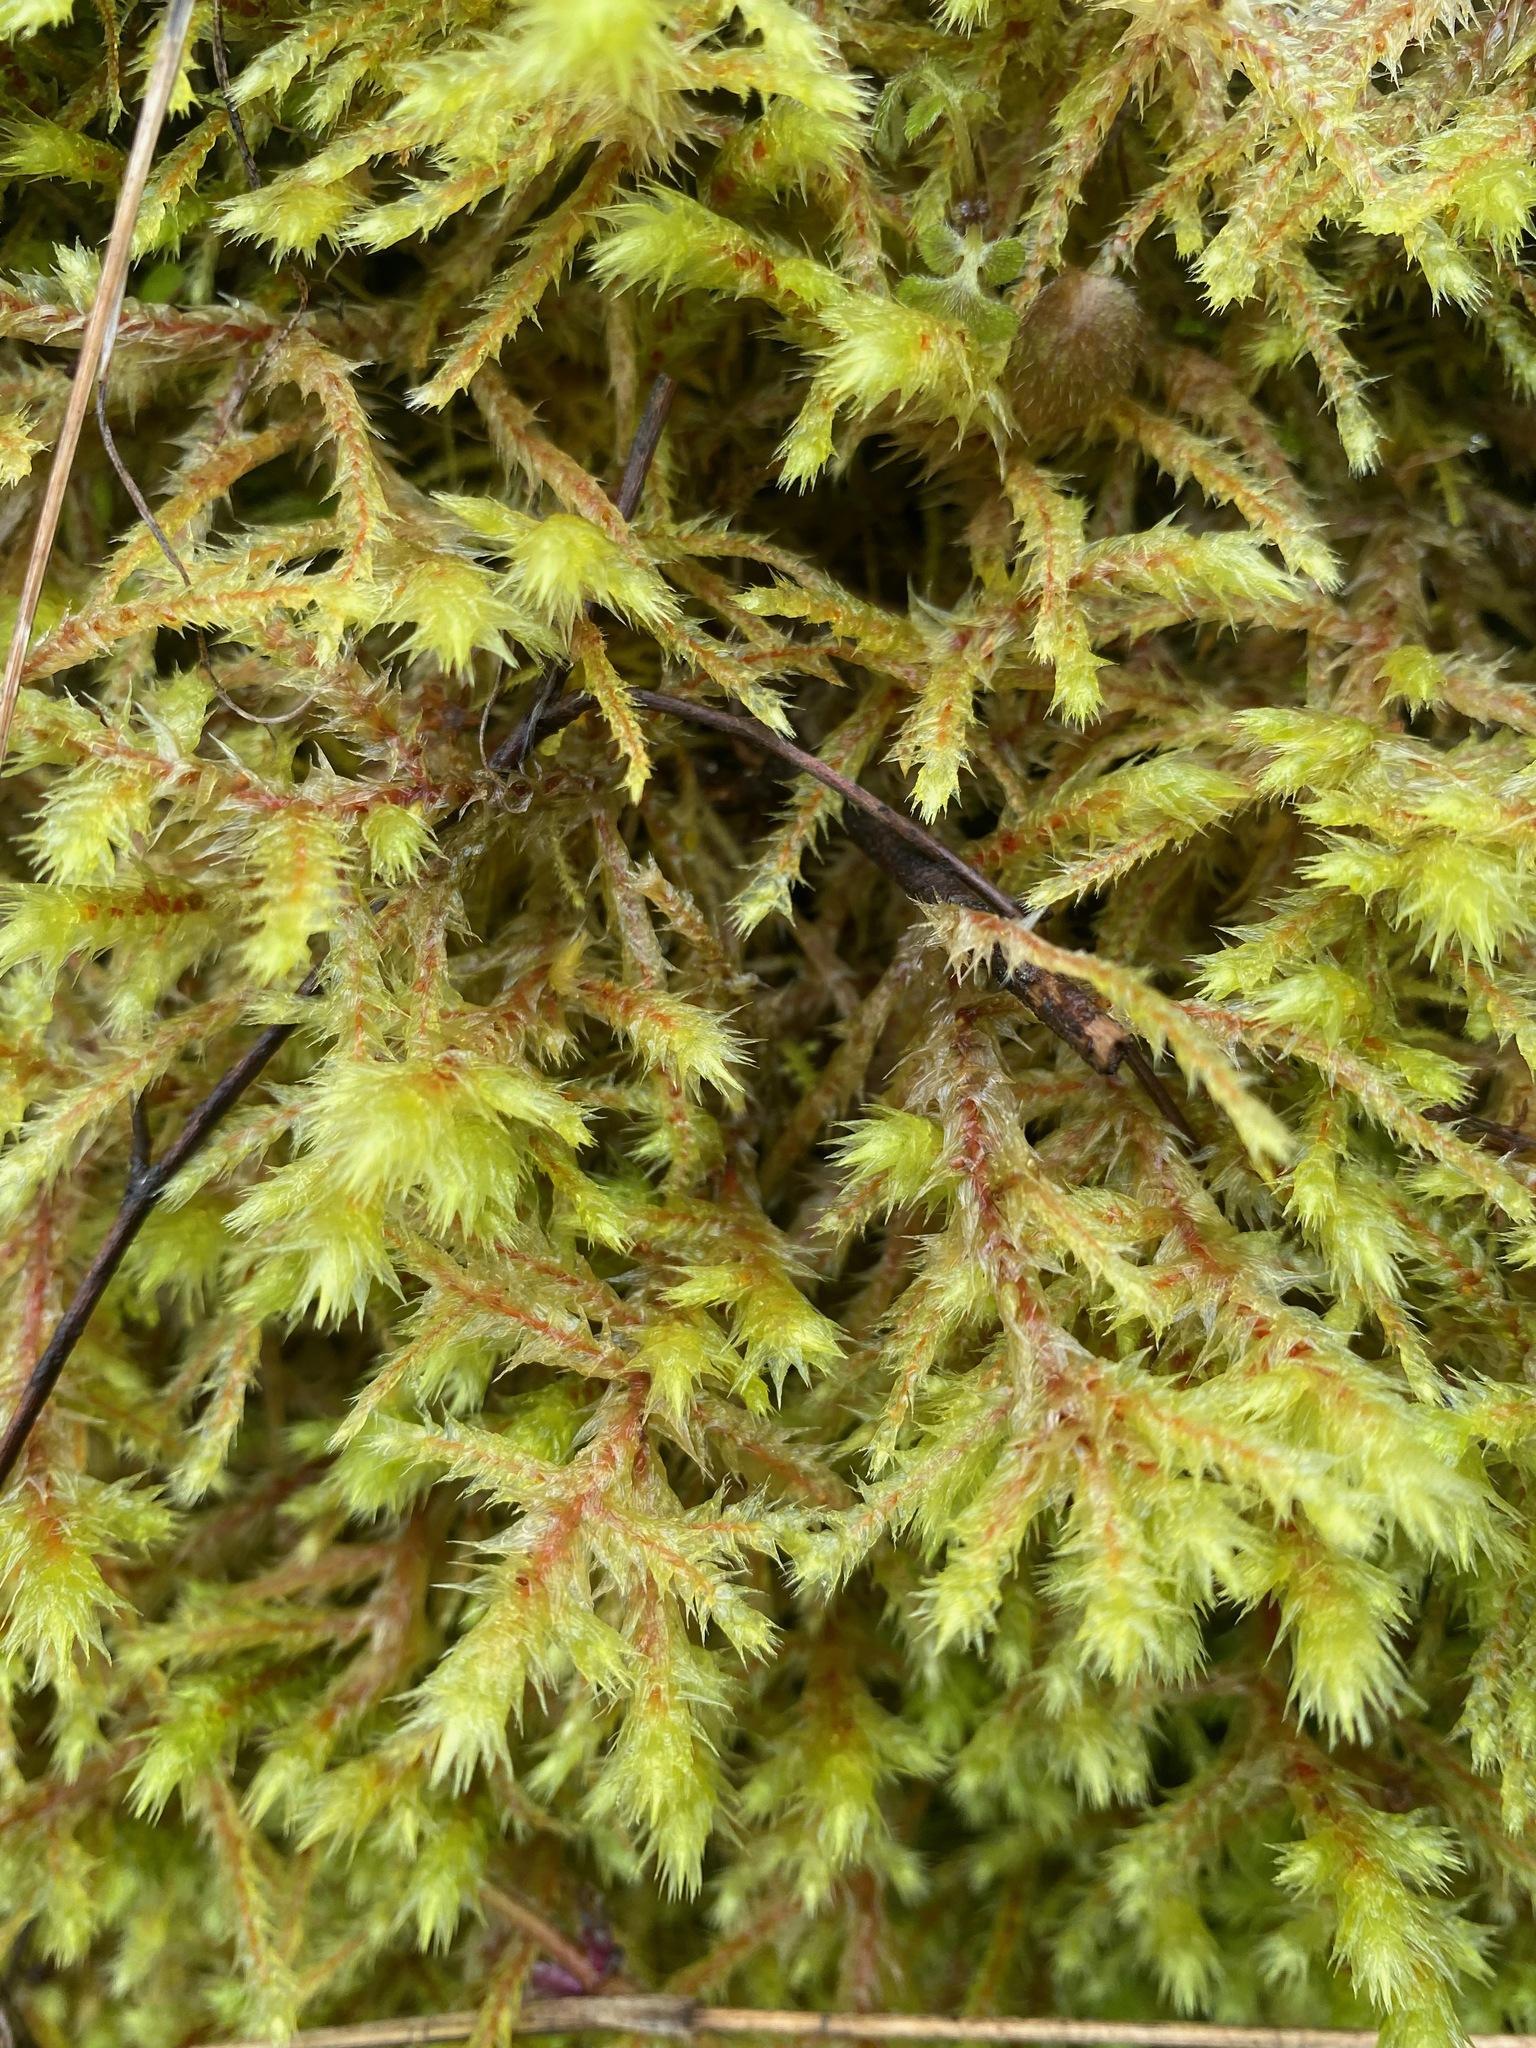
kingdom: Plantae
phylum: Bryophyta
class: Bryopsida
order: Hypnales
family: Hylocomiaceae
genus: Hylocomiadelphus
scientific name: Hylocomiadelphus triquetrus
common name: Rough goose neck moss
